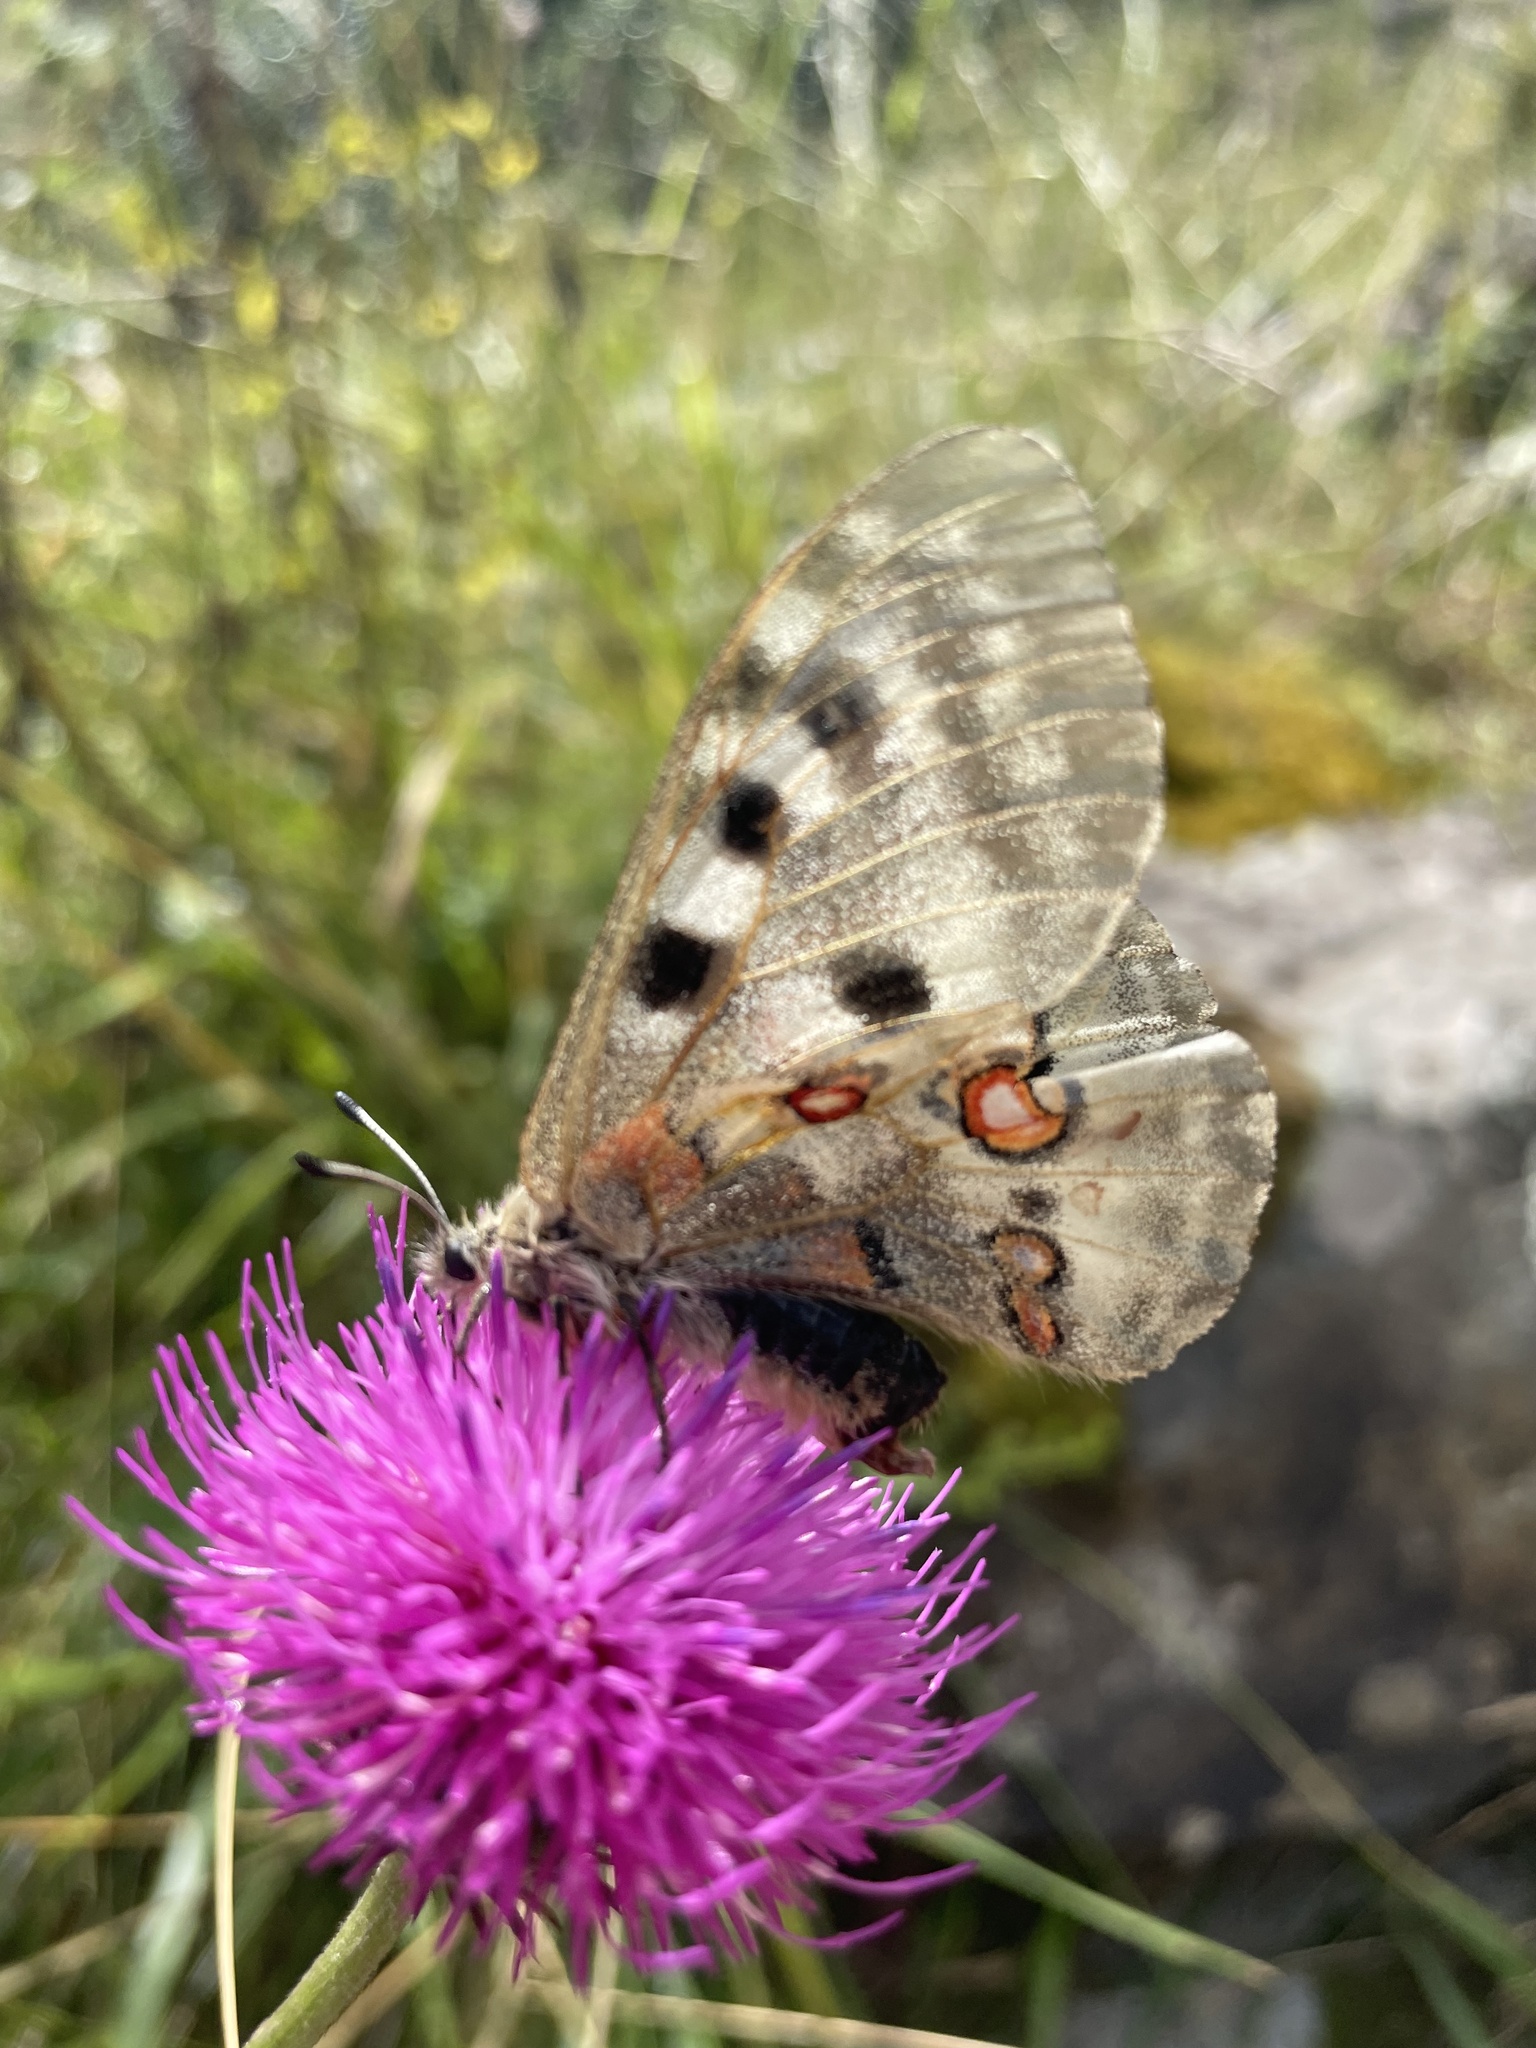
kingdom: Animalia
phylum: Arthropoda
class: Insecta
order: Lepidoptera
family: Papilionidae
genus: Parnassius
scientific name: Parnassius apollo
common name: Apollo
